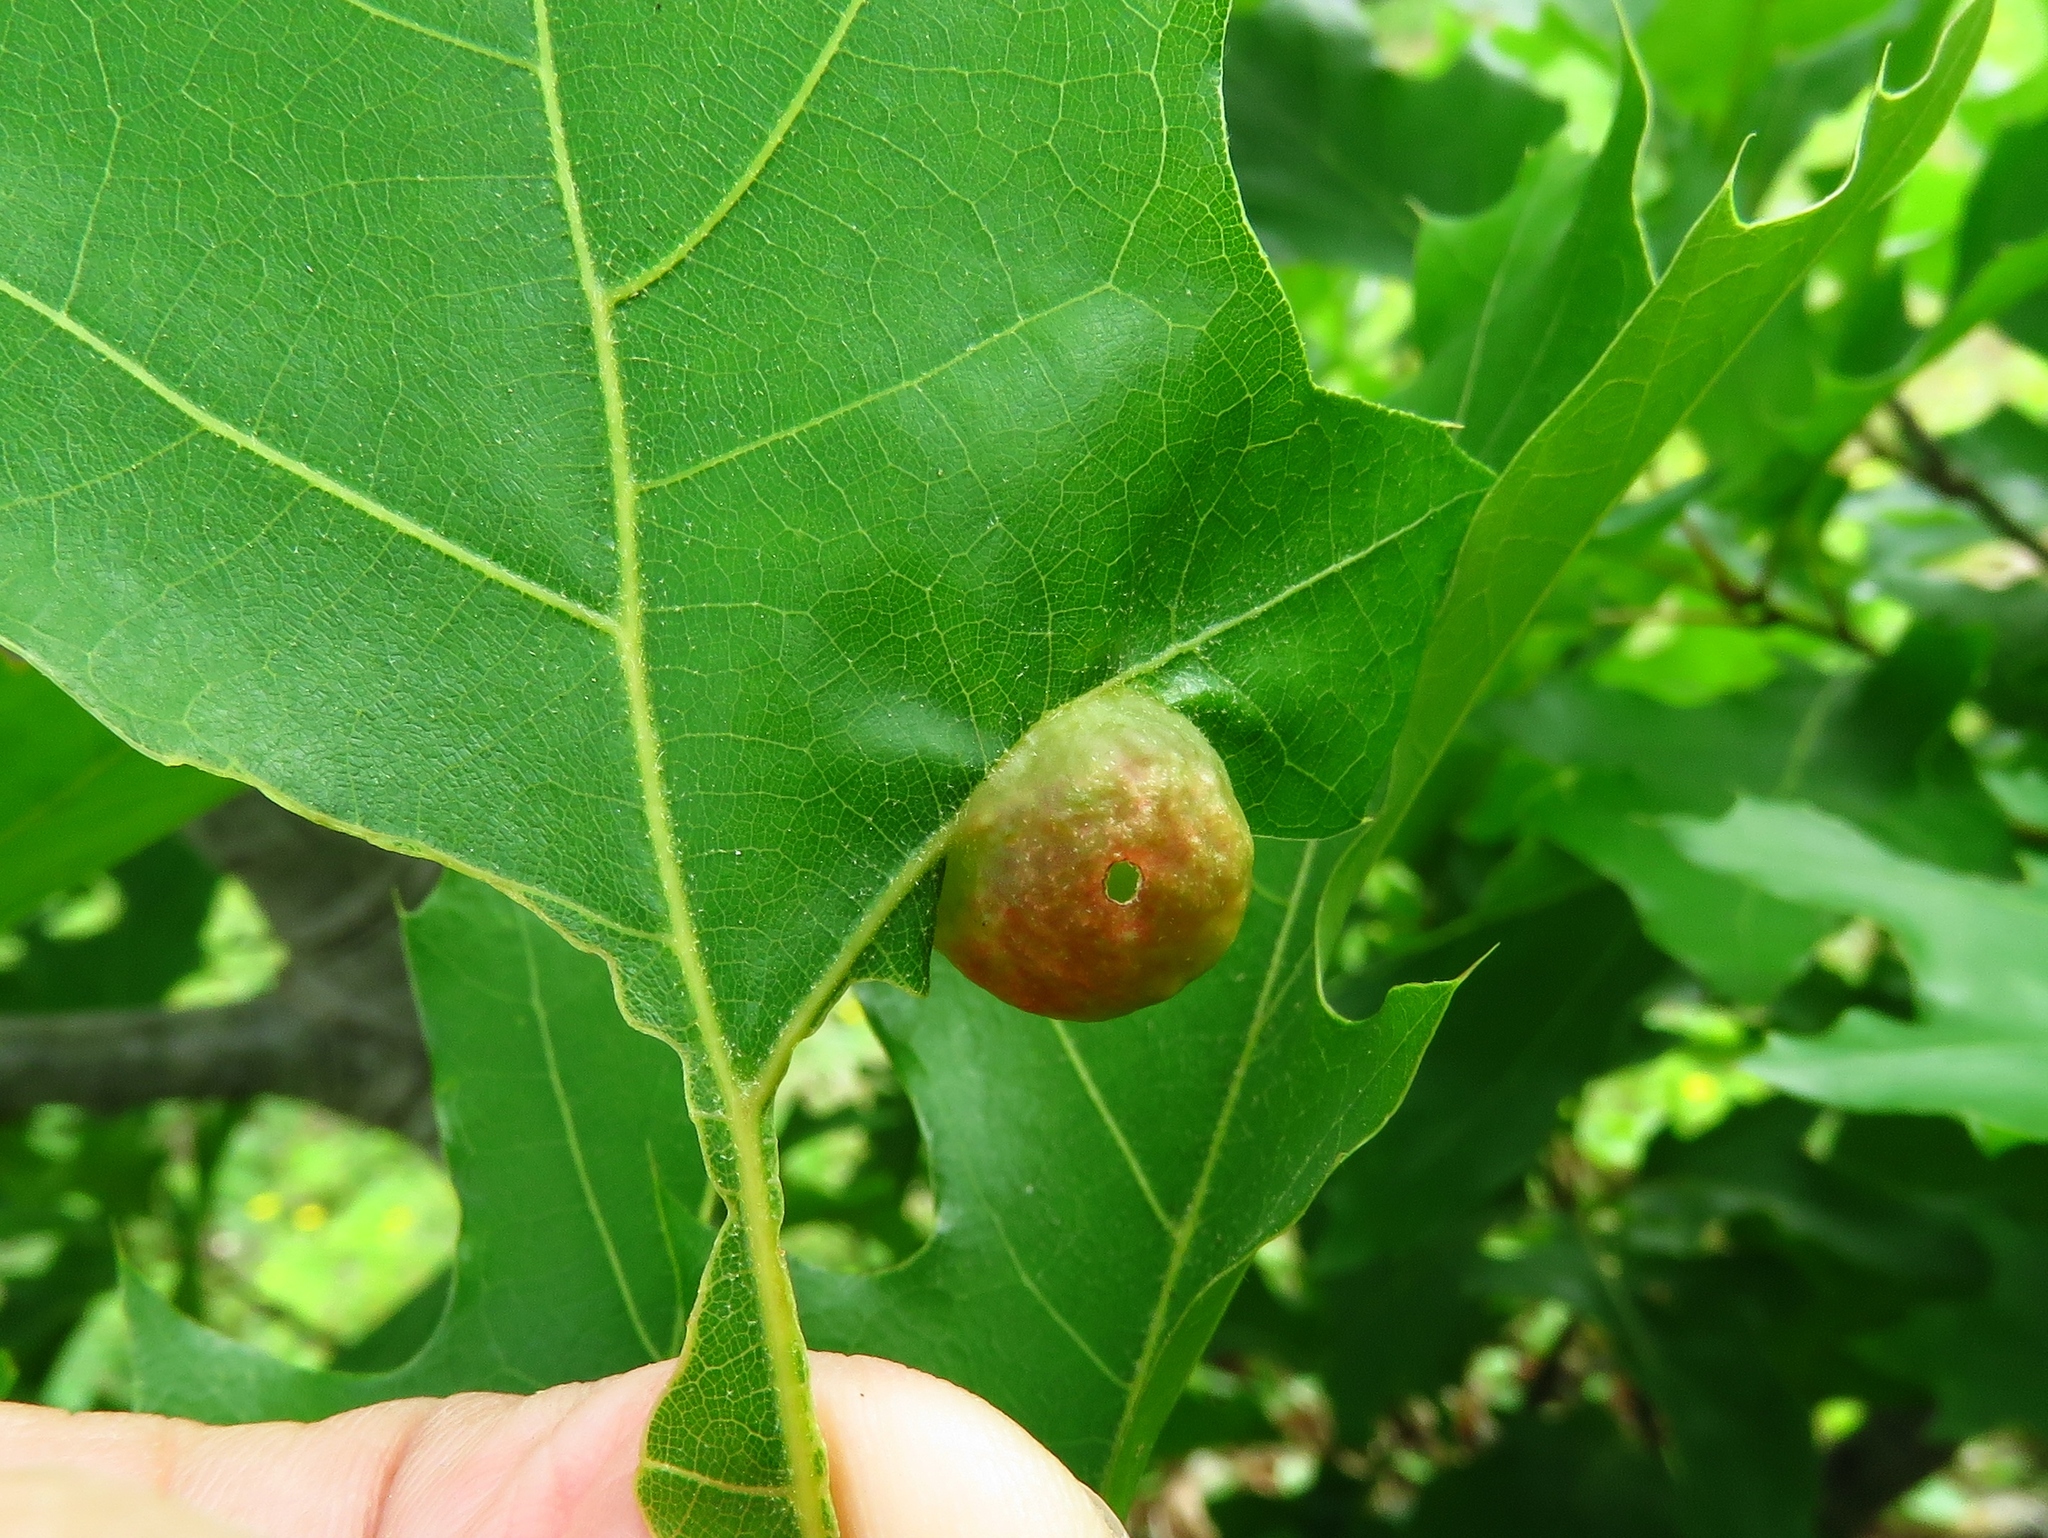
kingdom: Animalia
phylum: Arthropoda
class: Insecta
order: Hymenoptera
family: Cynipidae
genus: Dryocosmus
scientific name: Dryocosmus quercuspalustris
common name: Succulent oak gall wasp
